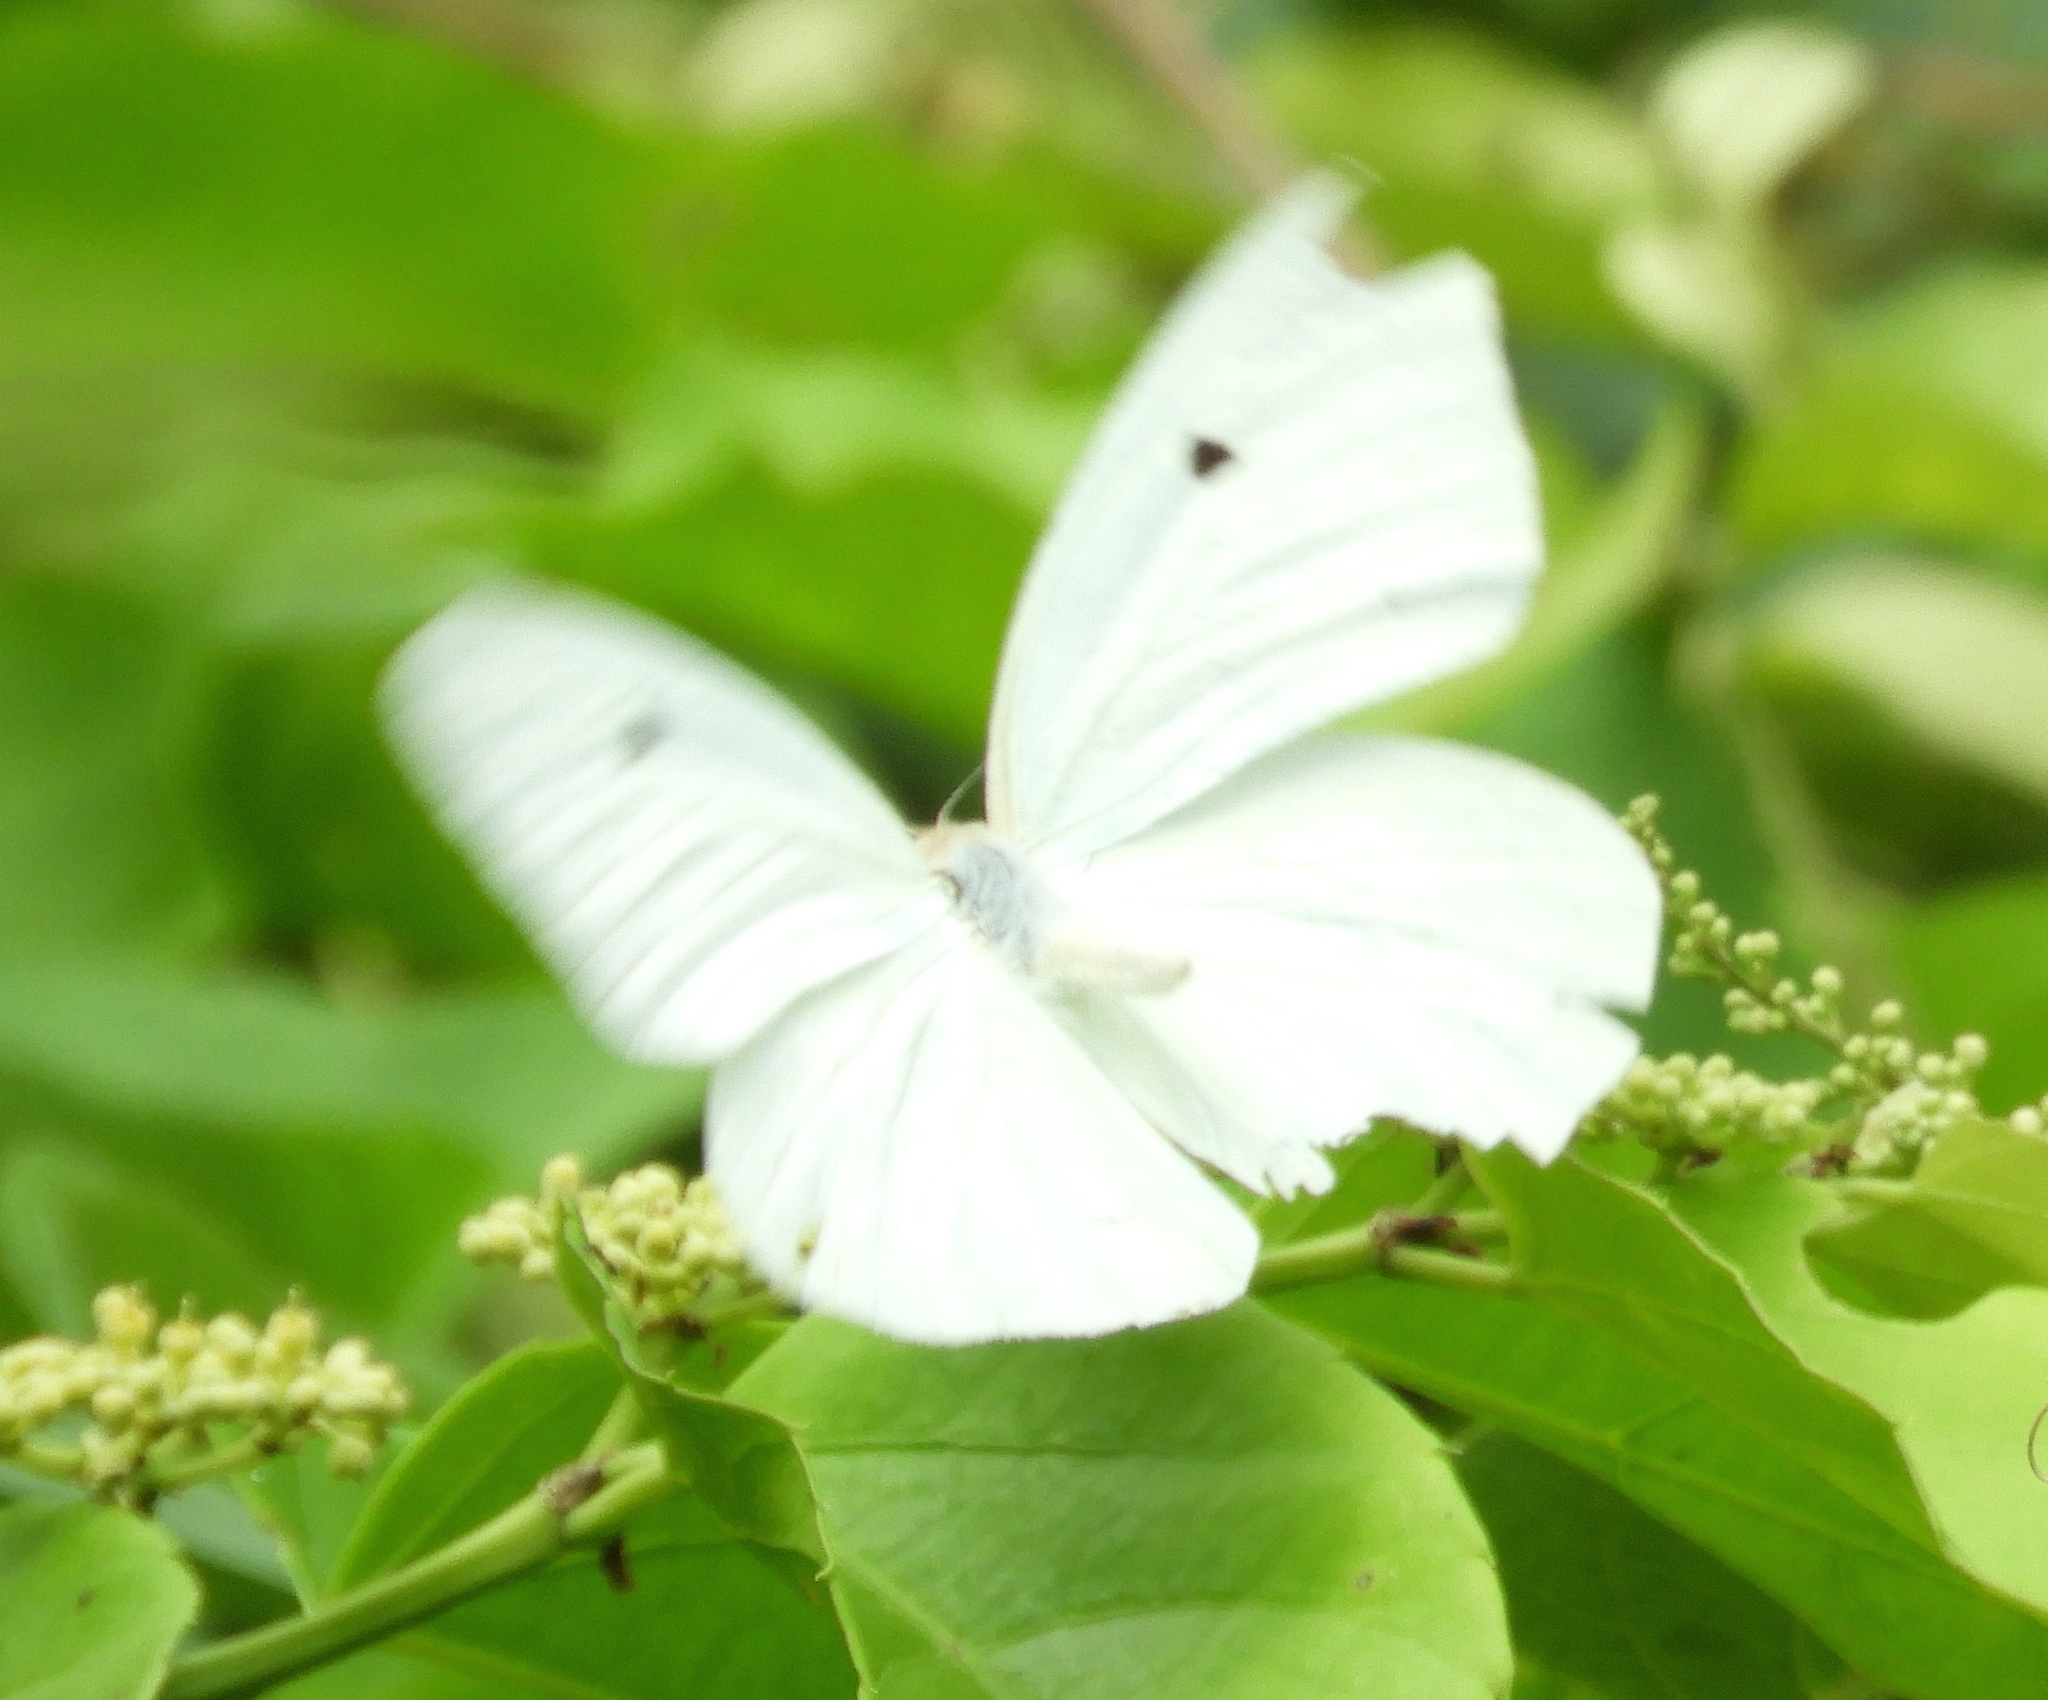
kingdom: Animalia
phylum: Arthropoda
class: Insecta
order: Lepidoptera
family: Pieridae
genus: Ganyra
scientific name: Ganyra josephina
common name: Giant white
